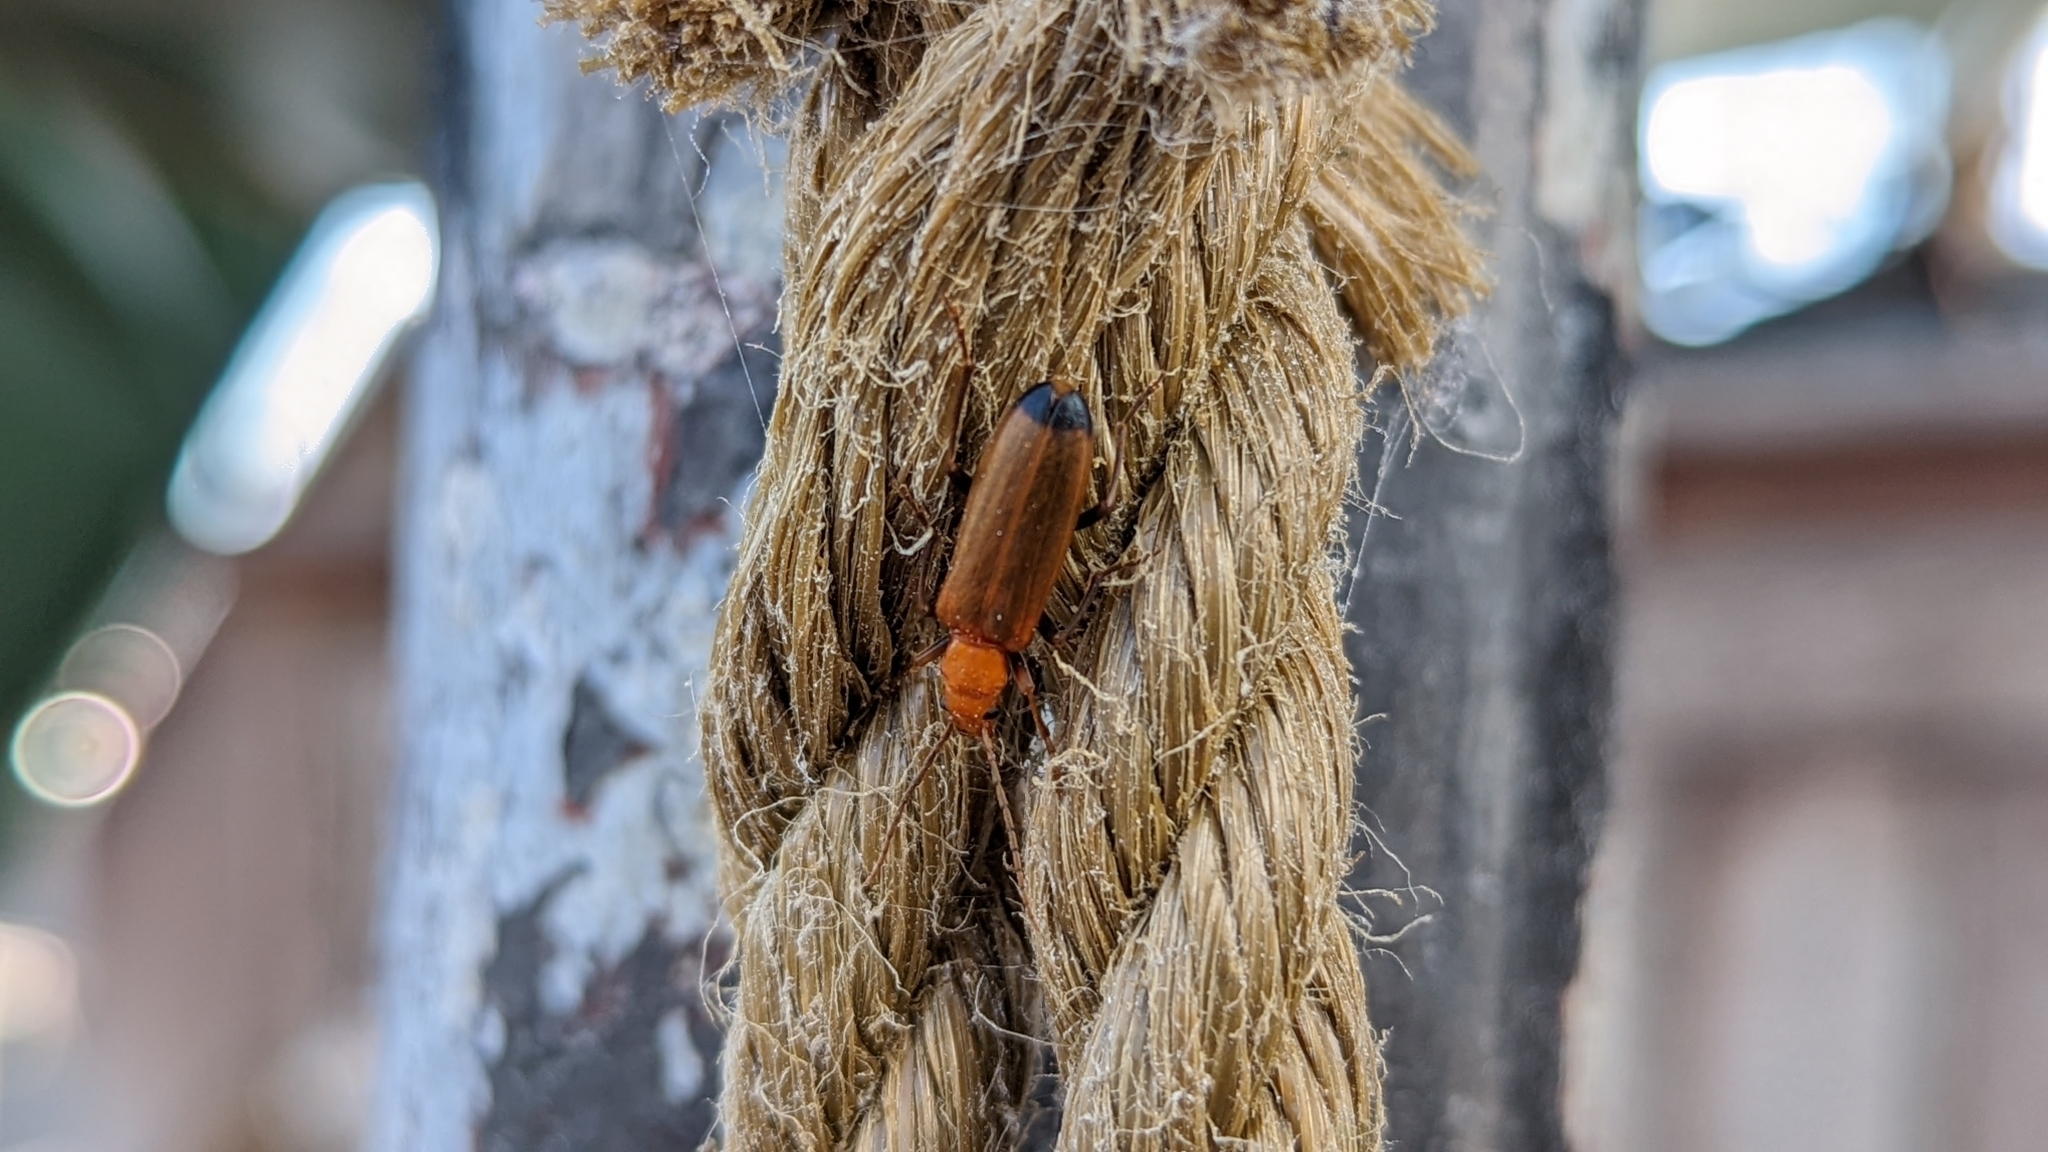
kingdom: Animalia
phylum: Arthropoda
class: Insecta
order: Coleoptera
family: Oedemeridae
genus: Nacerdes
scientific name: Nacerdes melanura
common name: Wharf borer
